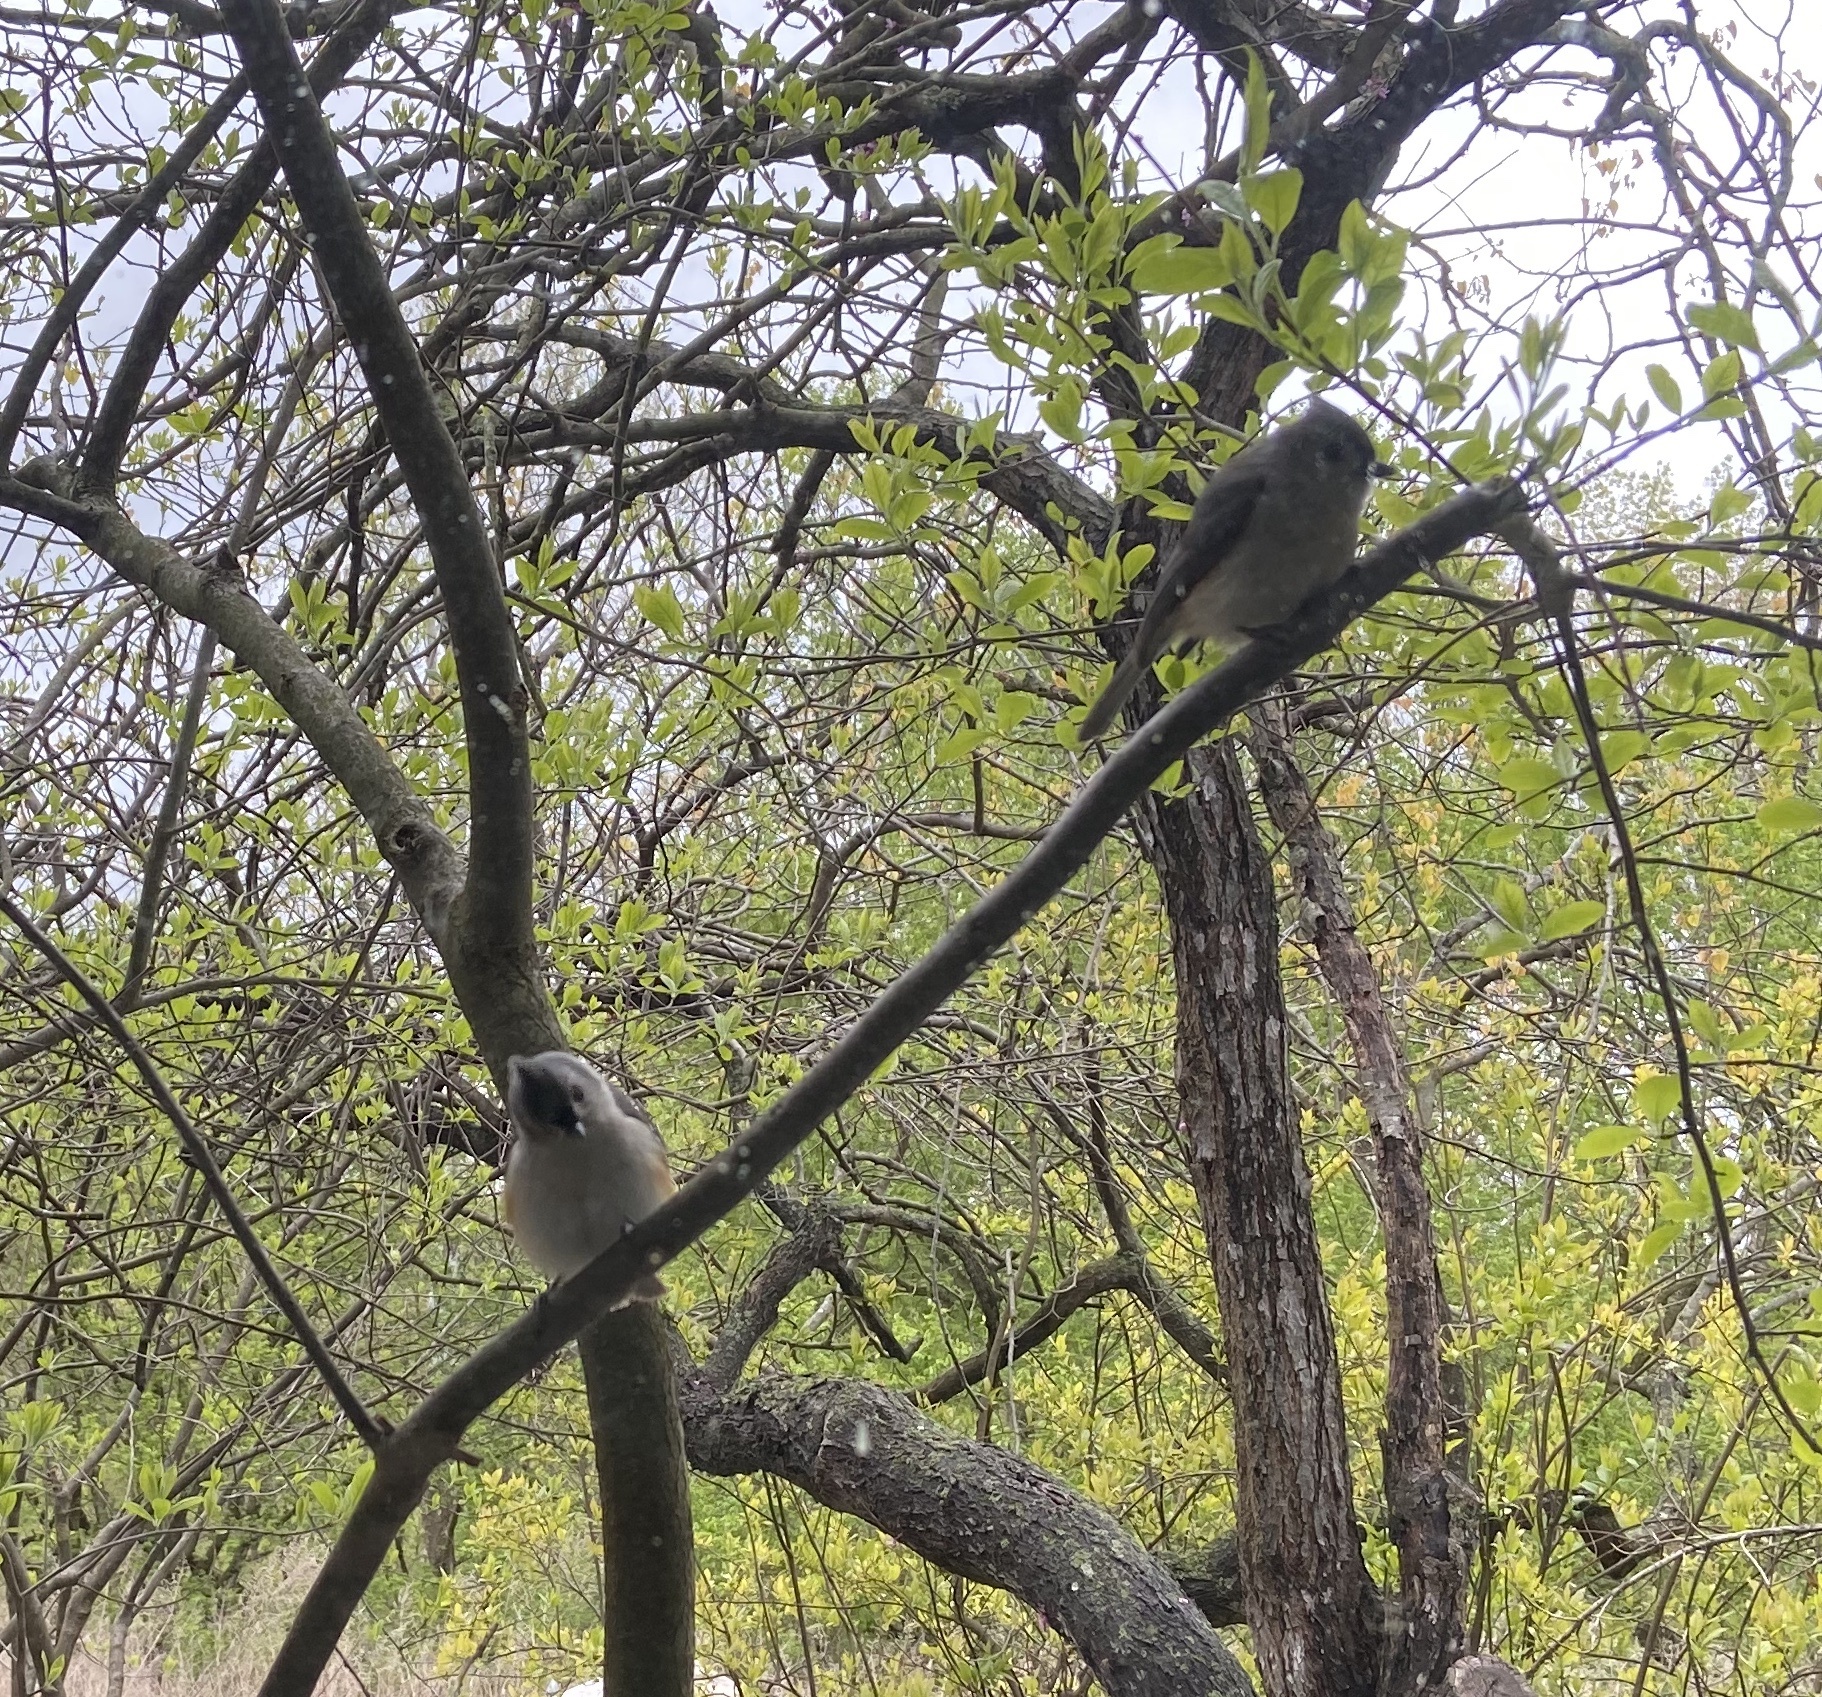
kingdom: Animalia
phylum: Chordata
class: Aves
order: Passeriformes
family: Paridae
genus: Baeolophus
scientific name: Baeolophus bicolor
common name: Tufted titmouse
